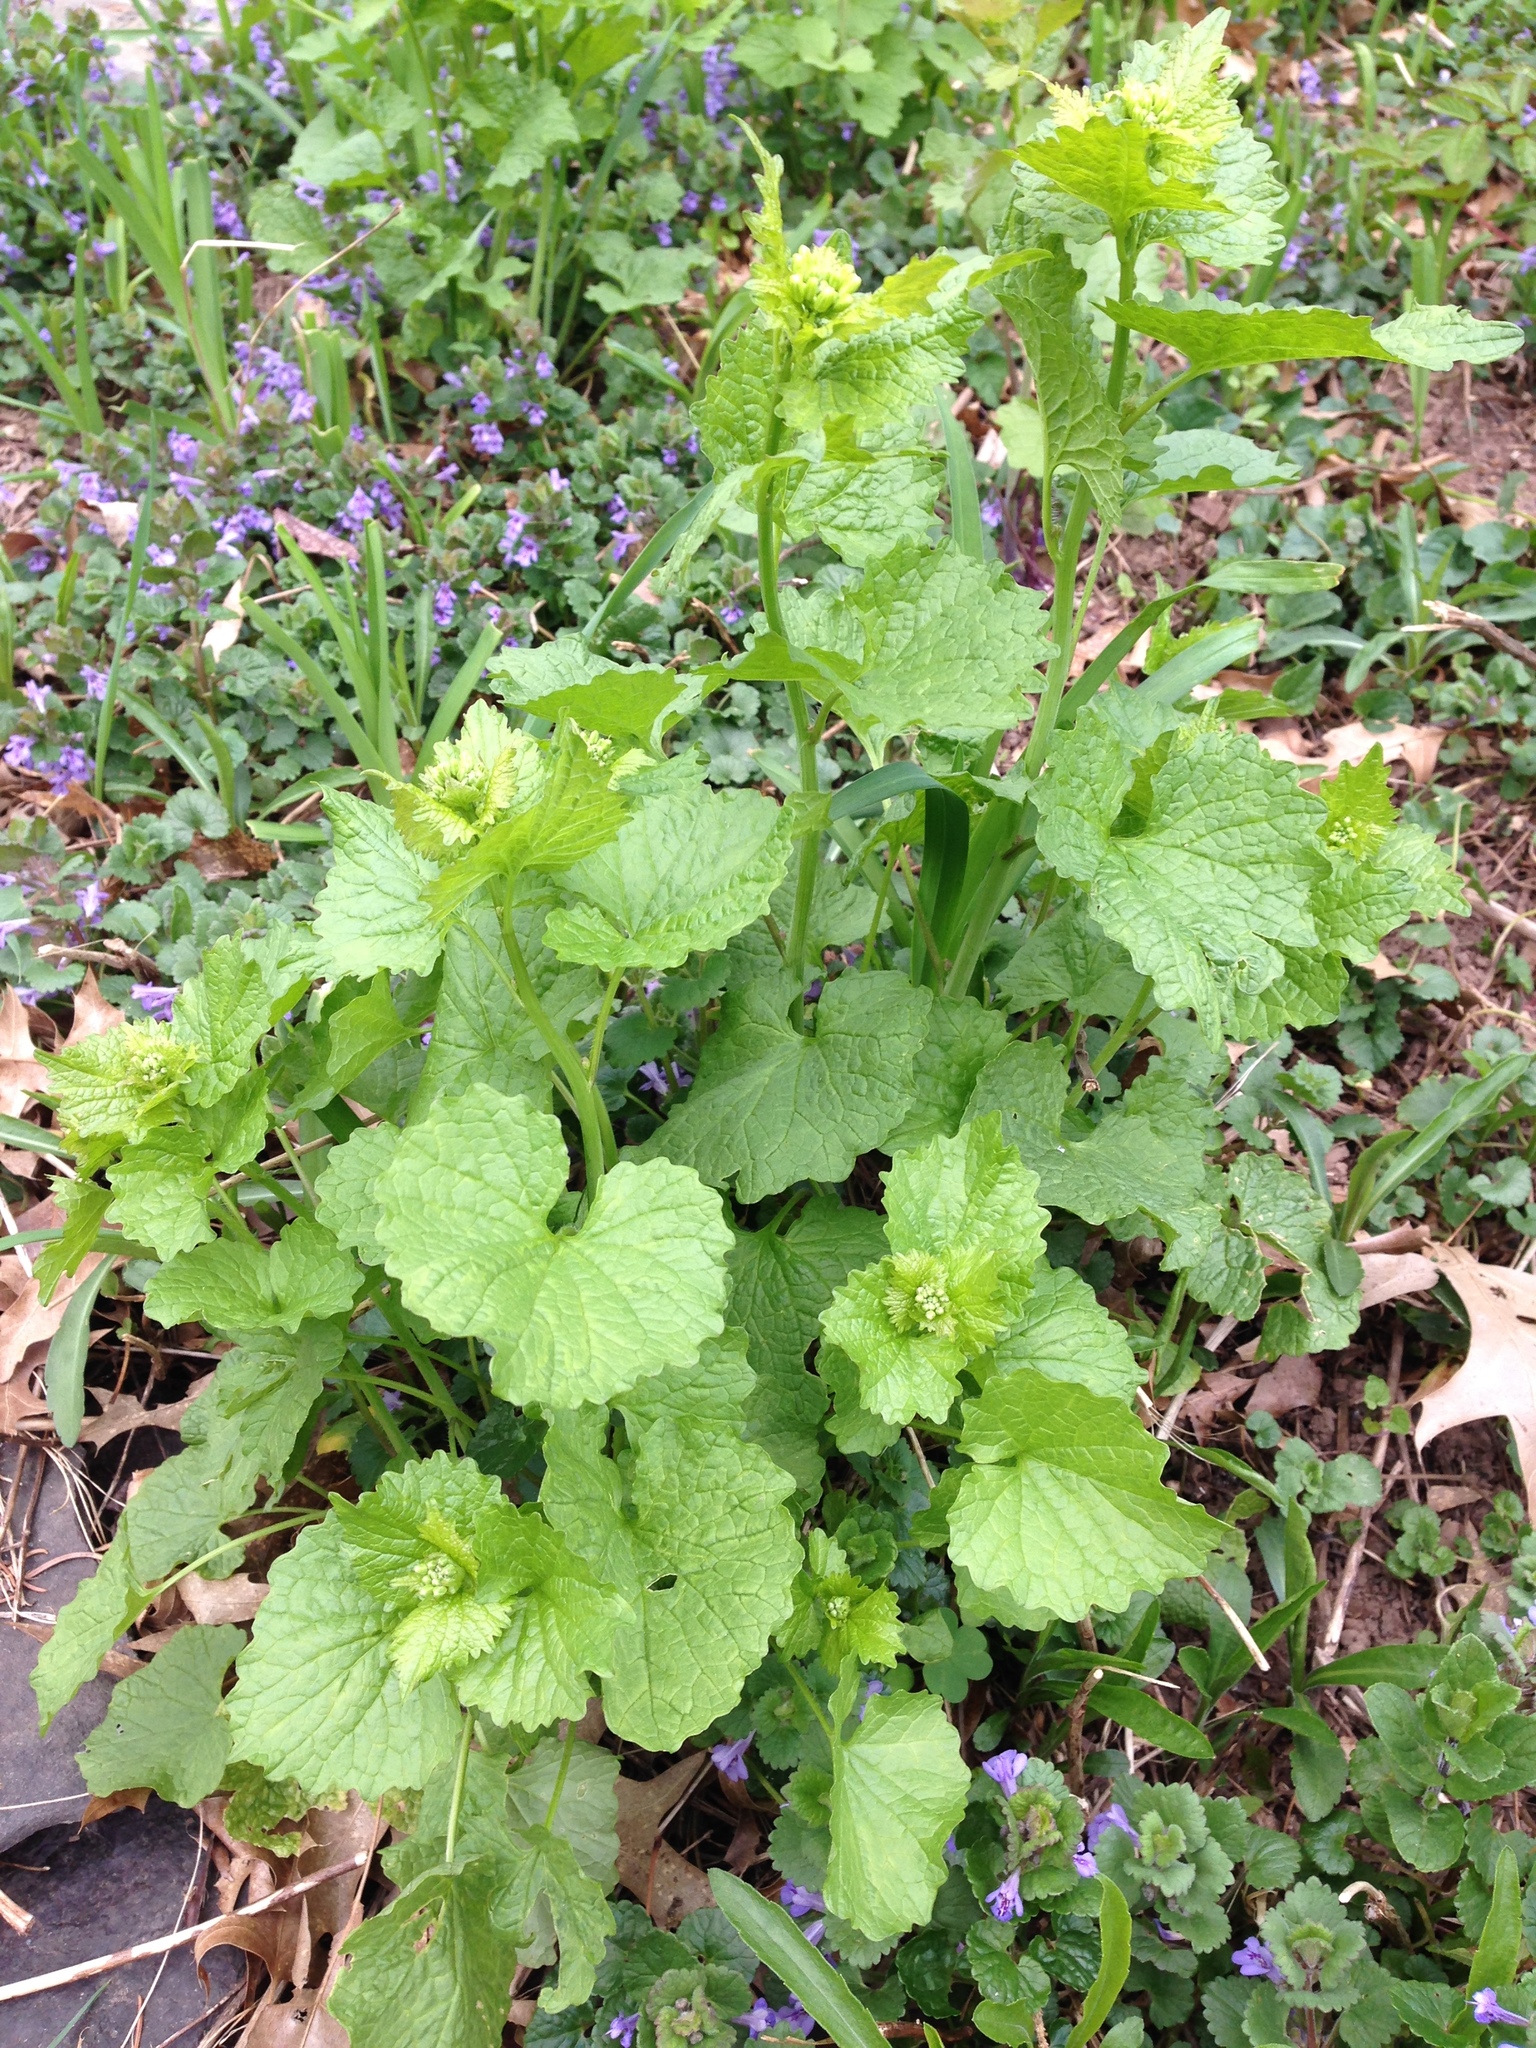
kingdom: Plantae
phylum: Tracheophyta
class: Magnoliopsida
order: Brassicales
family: Brassicaceae
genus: Alliaria
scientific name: Alliaria petiolata
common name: Garlic mustard
